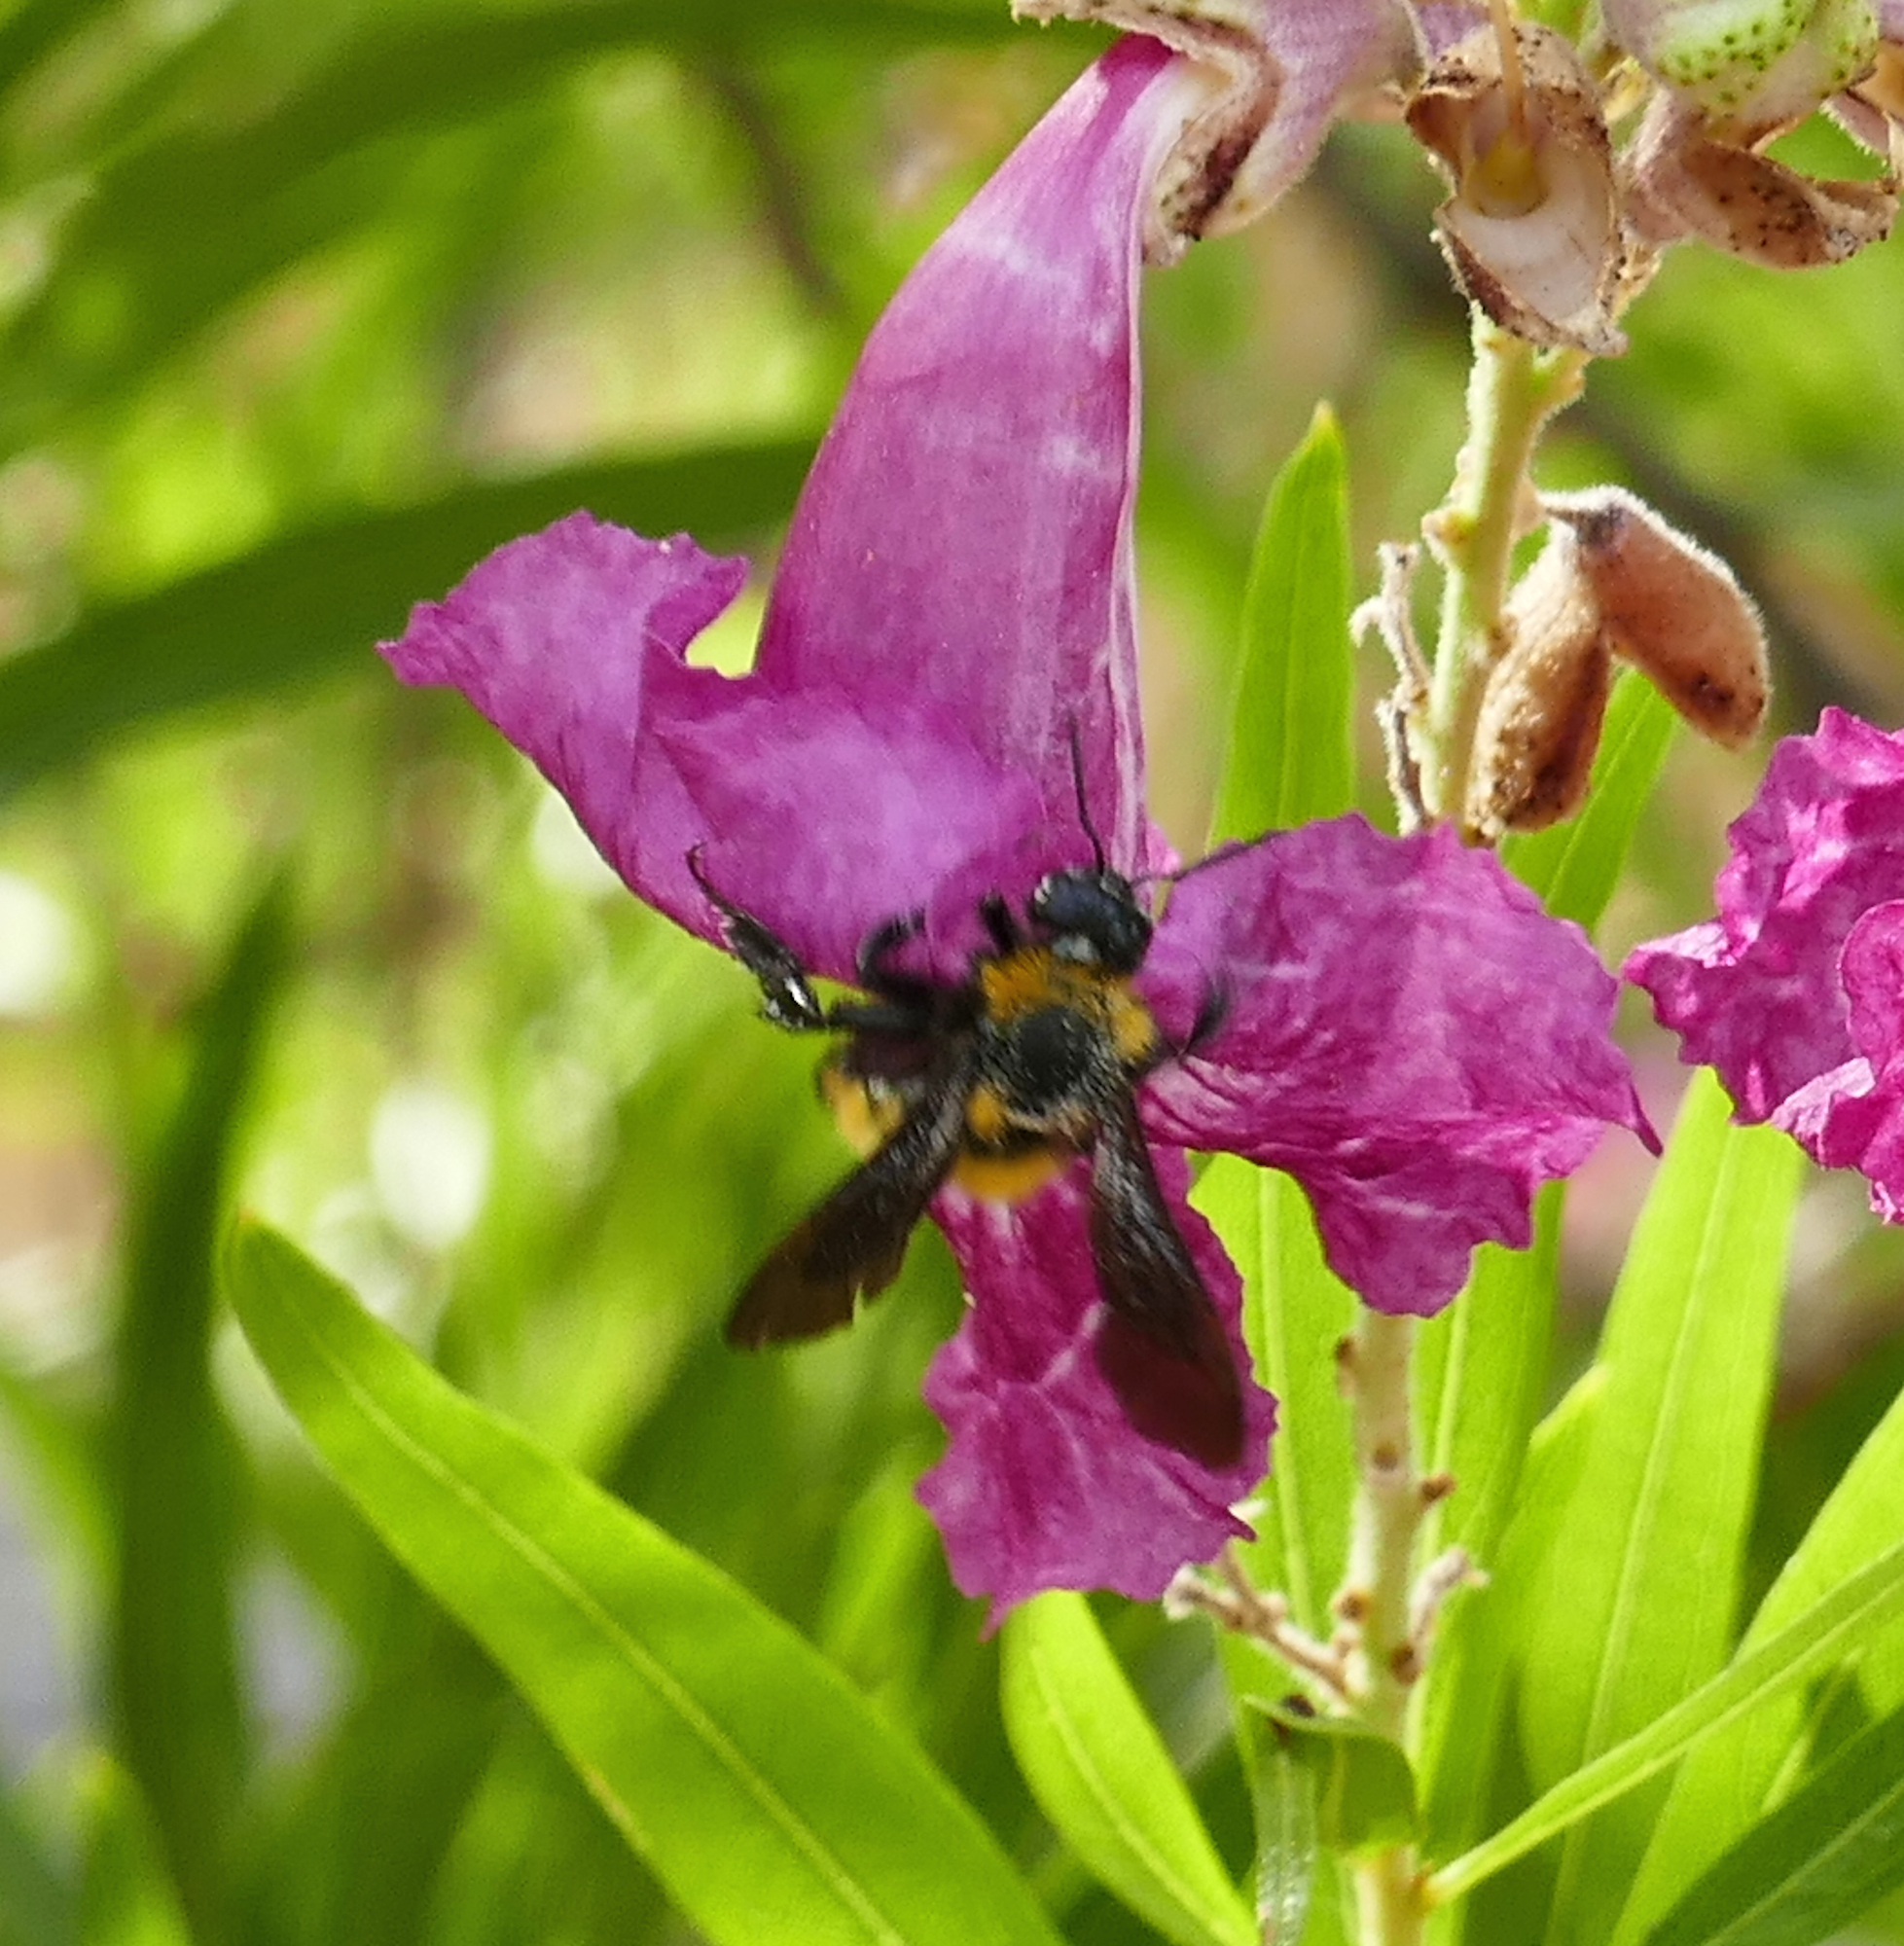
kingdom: Animalia
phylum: Arthropoda
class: Insecta
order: Hymenoptera
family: Apidae
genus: Bombus
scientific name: Bombus sonorus
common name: Sonoran bumble bee
